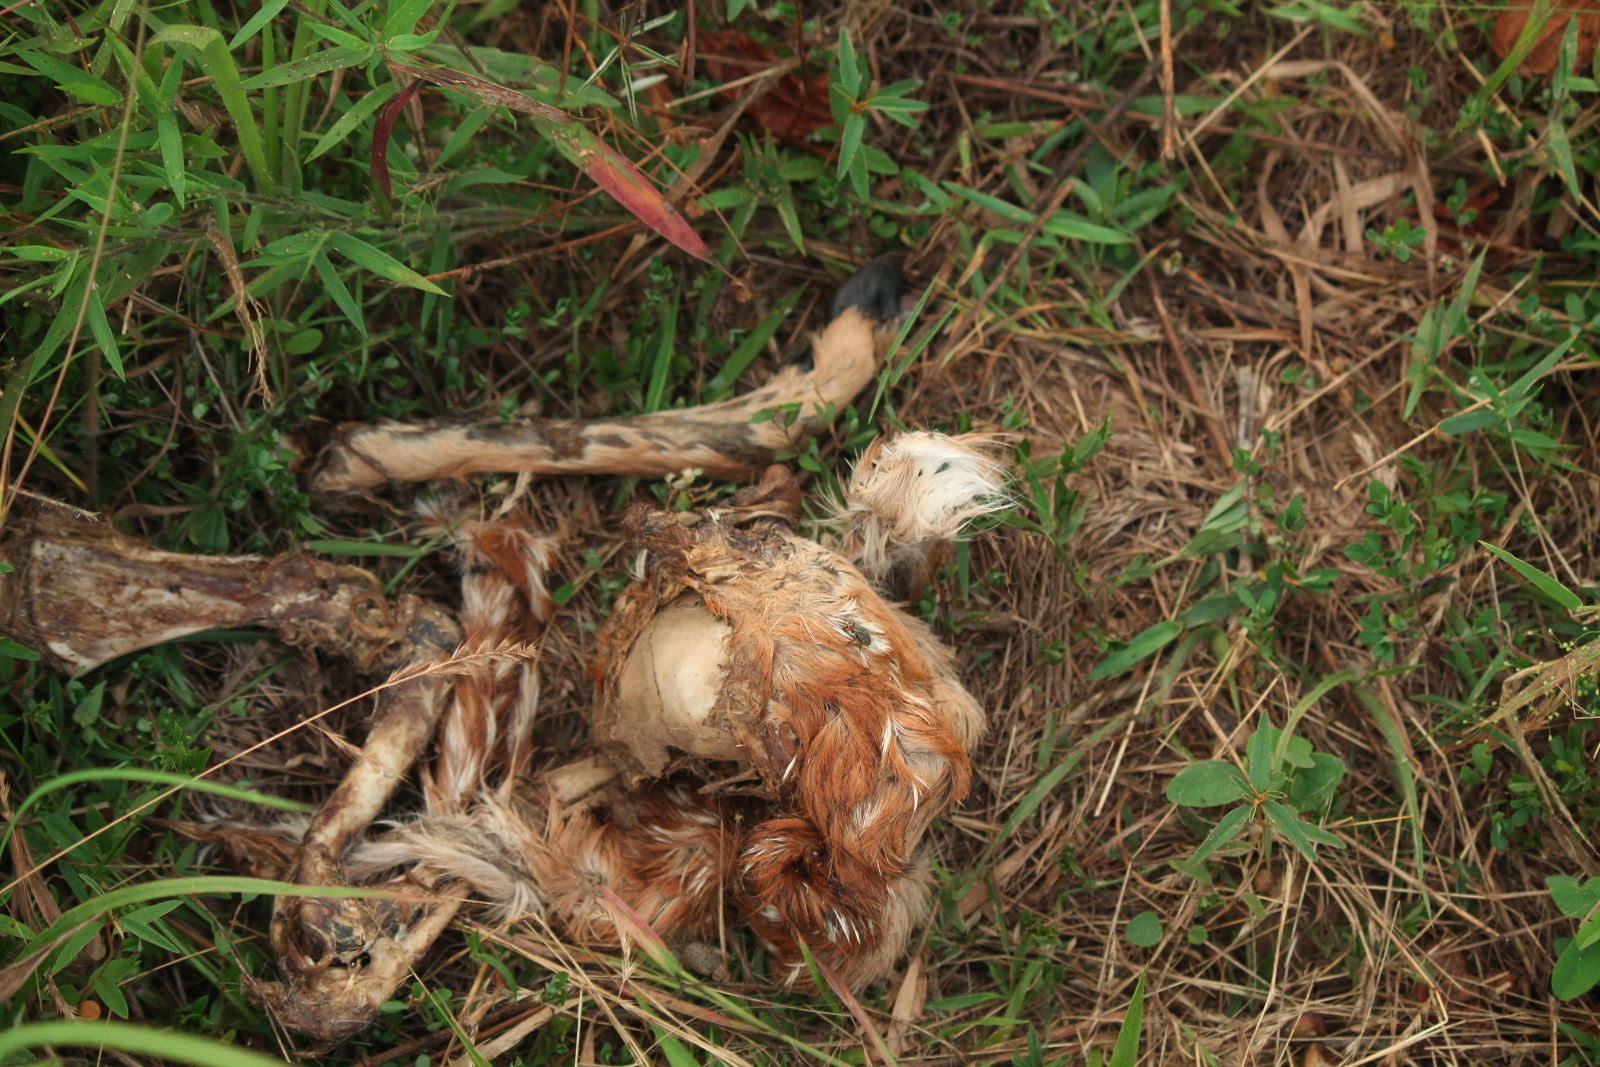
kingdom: Animalia
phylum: Chordata
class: Mammalia
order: Artiodactyla
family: Cervidae
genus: Odocoileus
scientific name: Odocoileus virginianus
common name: White-tailed deer
